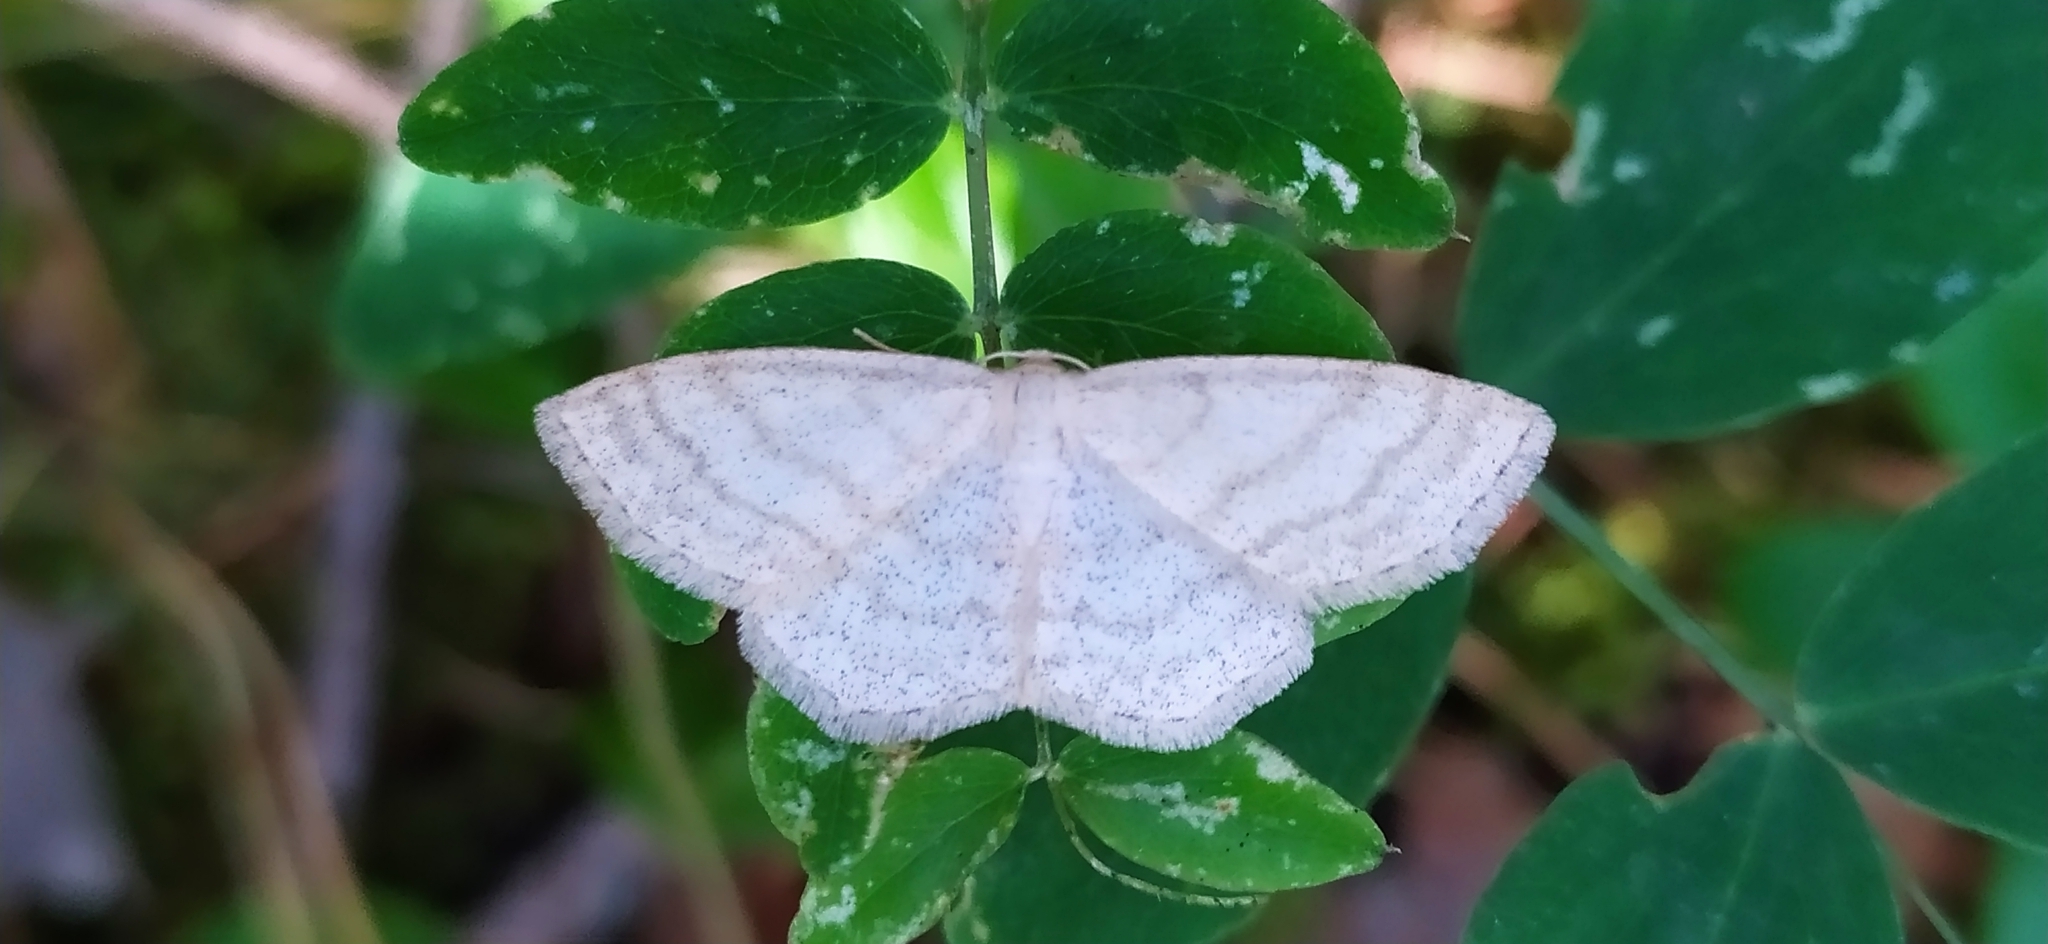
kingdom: Animalia
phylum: Arthropoda
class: Insecta
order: Lepidoptera
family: Geometridae
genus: Scopula
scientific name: Scopula ternata
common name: Smoky wave
